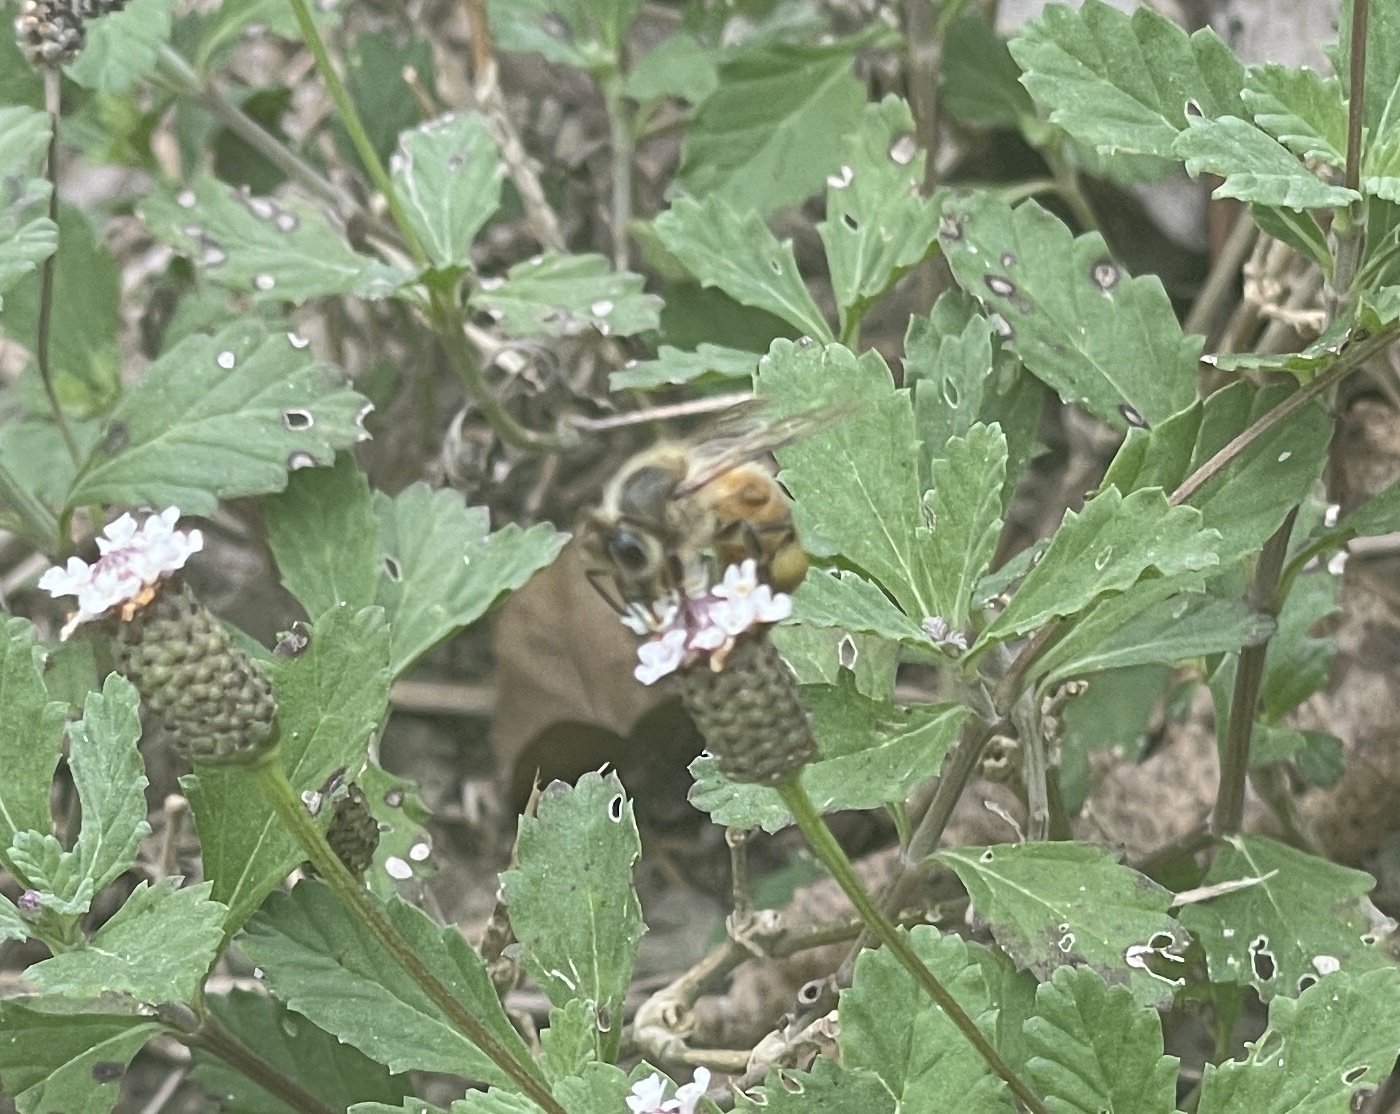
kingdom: Animalia
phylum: Arthropoda
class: Insecta
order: Hymenoptera
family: Apidae
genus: Apis
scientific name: Apis mellifera
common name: Honey bee
